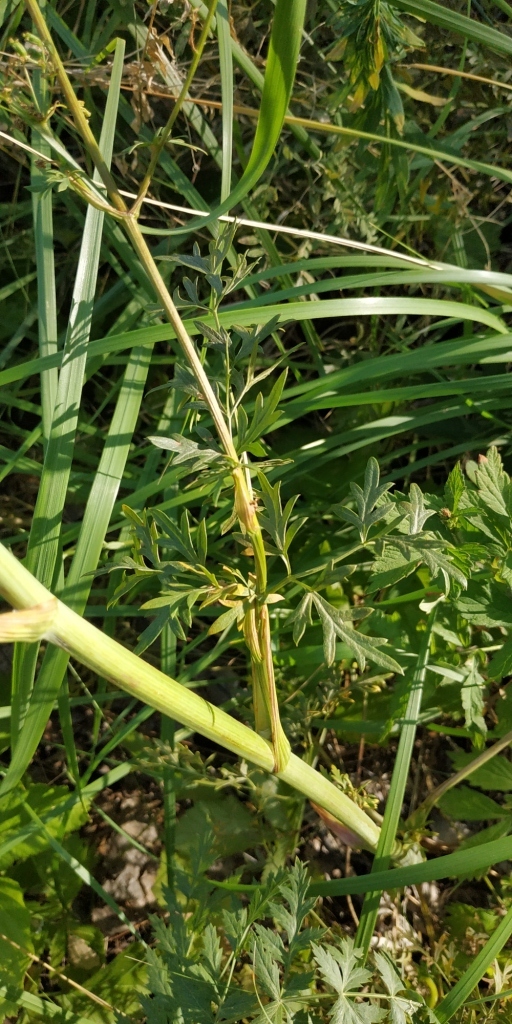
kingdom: Plantae
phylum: Tracheophyta
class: Magnoliopsida
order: Apiales
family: Apiaceae
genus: Seseli
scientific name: Seseli libanotis
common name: Mooncarrot
